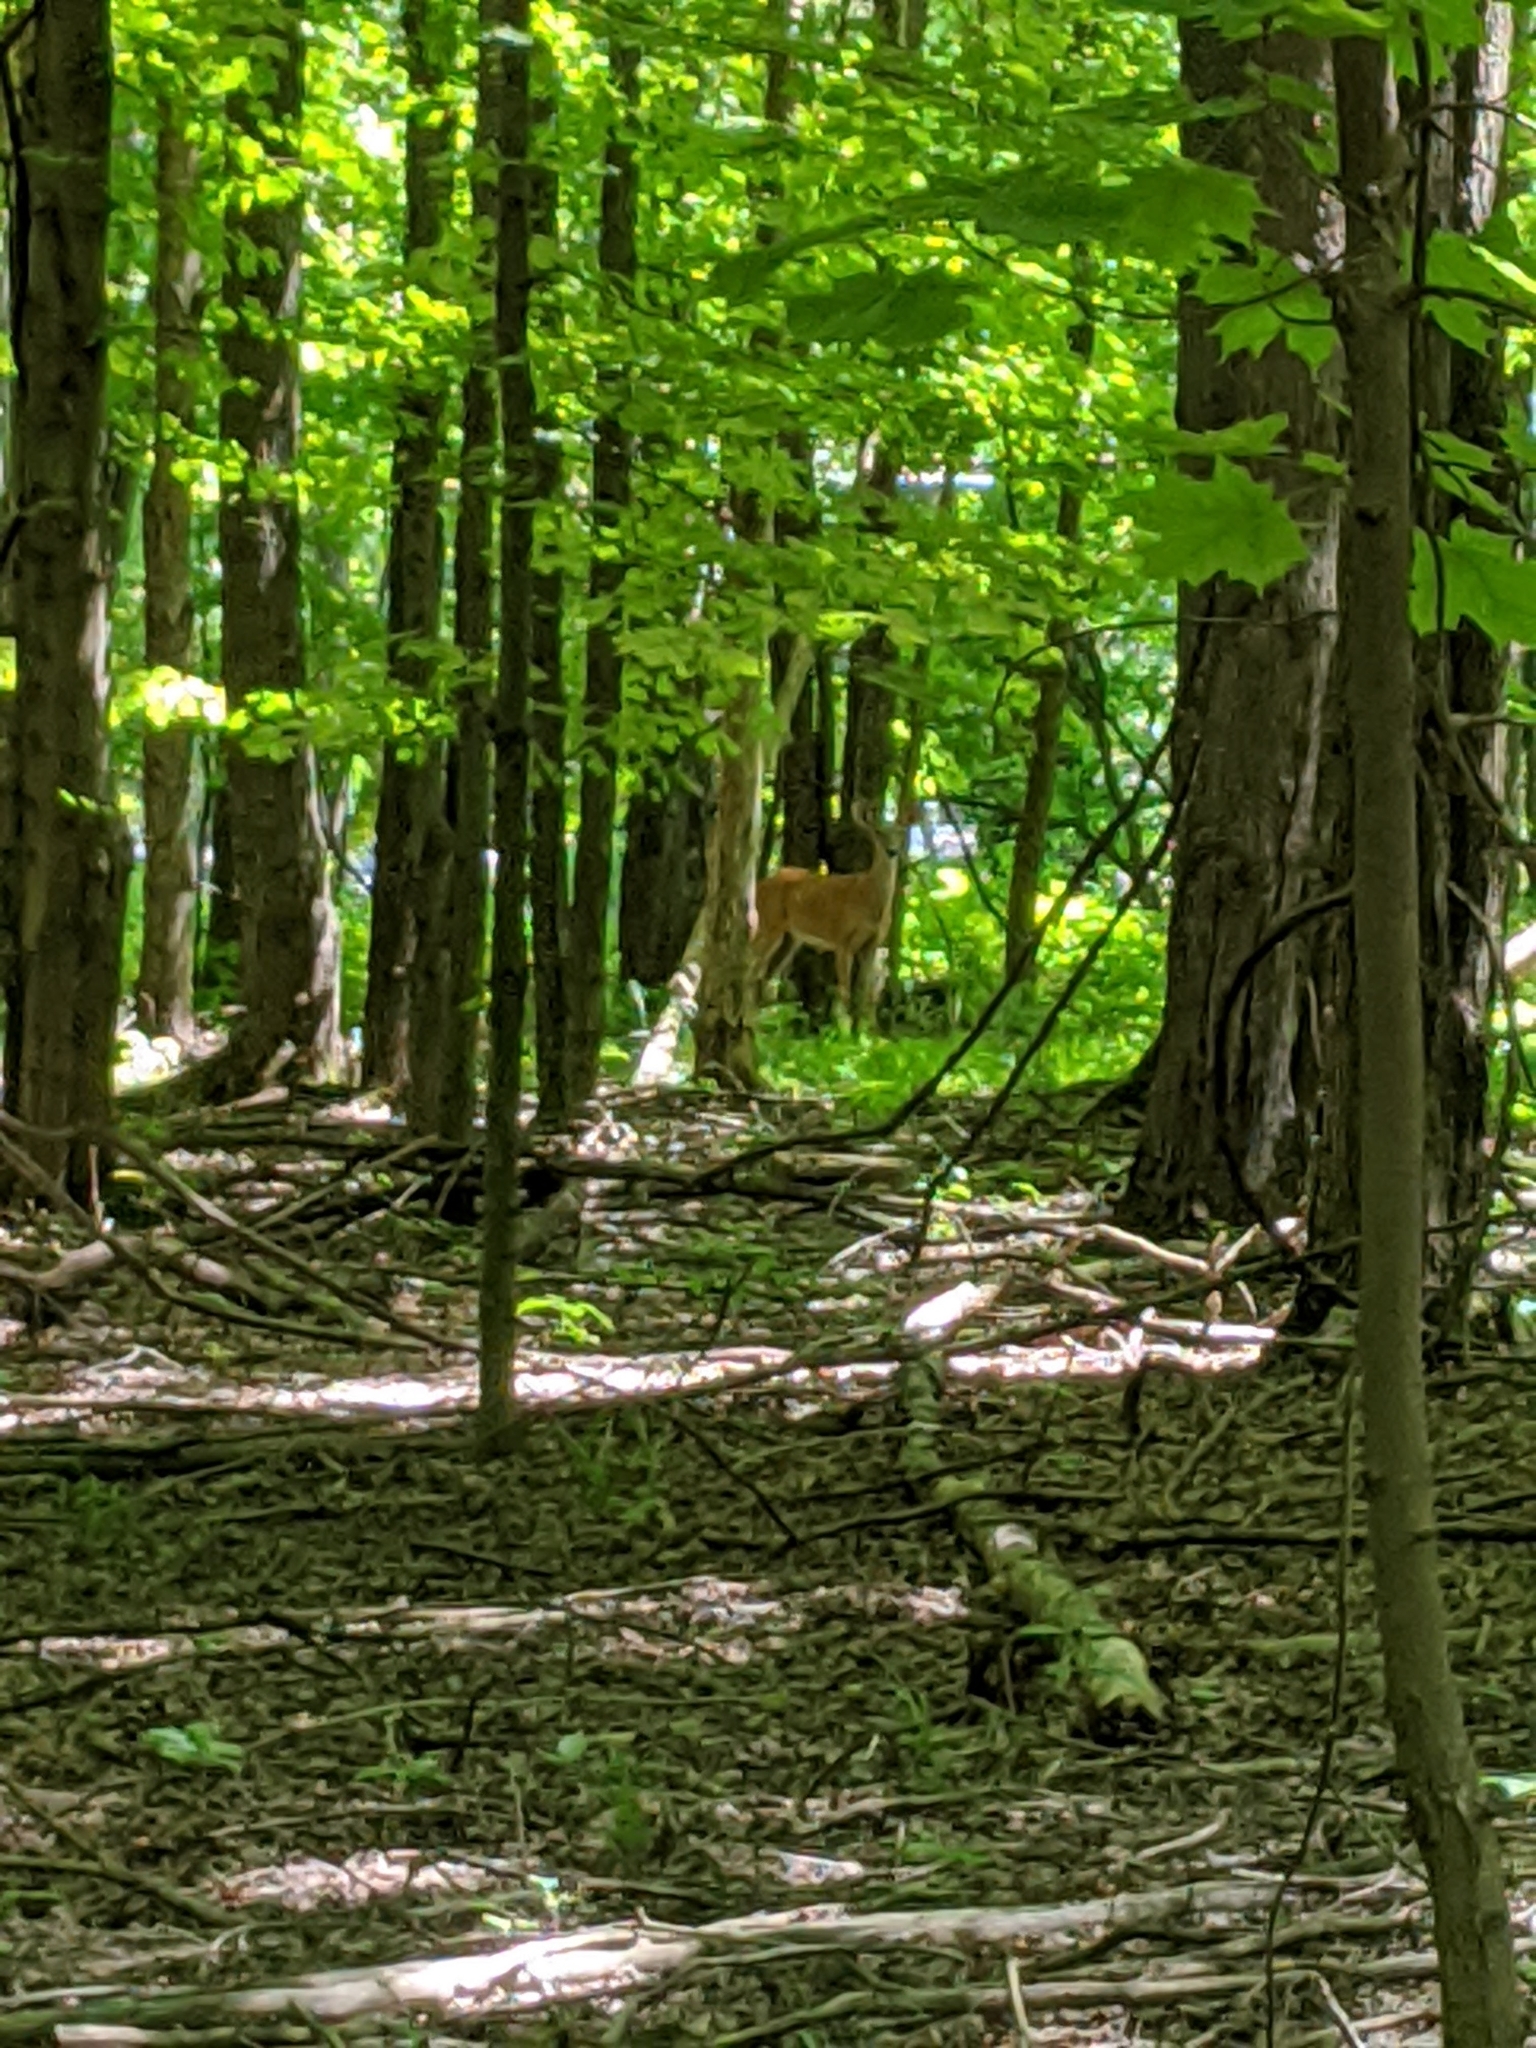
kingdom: Animalia
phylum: Chordata
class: Mammalia
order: Artiodactyla
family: Cervidae
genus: Odocoileus
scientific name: Odocoileus virginianus
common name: White-tailed deer
